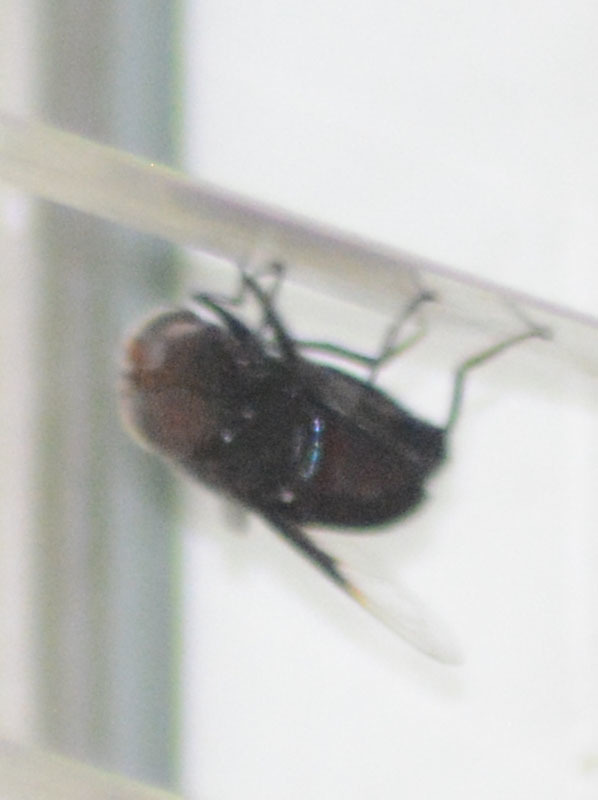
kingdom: Animalia
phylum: Arthropoda
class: Insecta
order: Diptera
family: Syrphidae
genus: Copestylum
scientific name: Copestylum mexicanum
